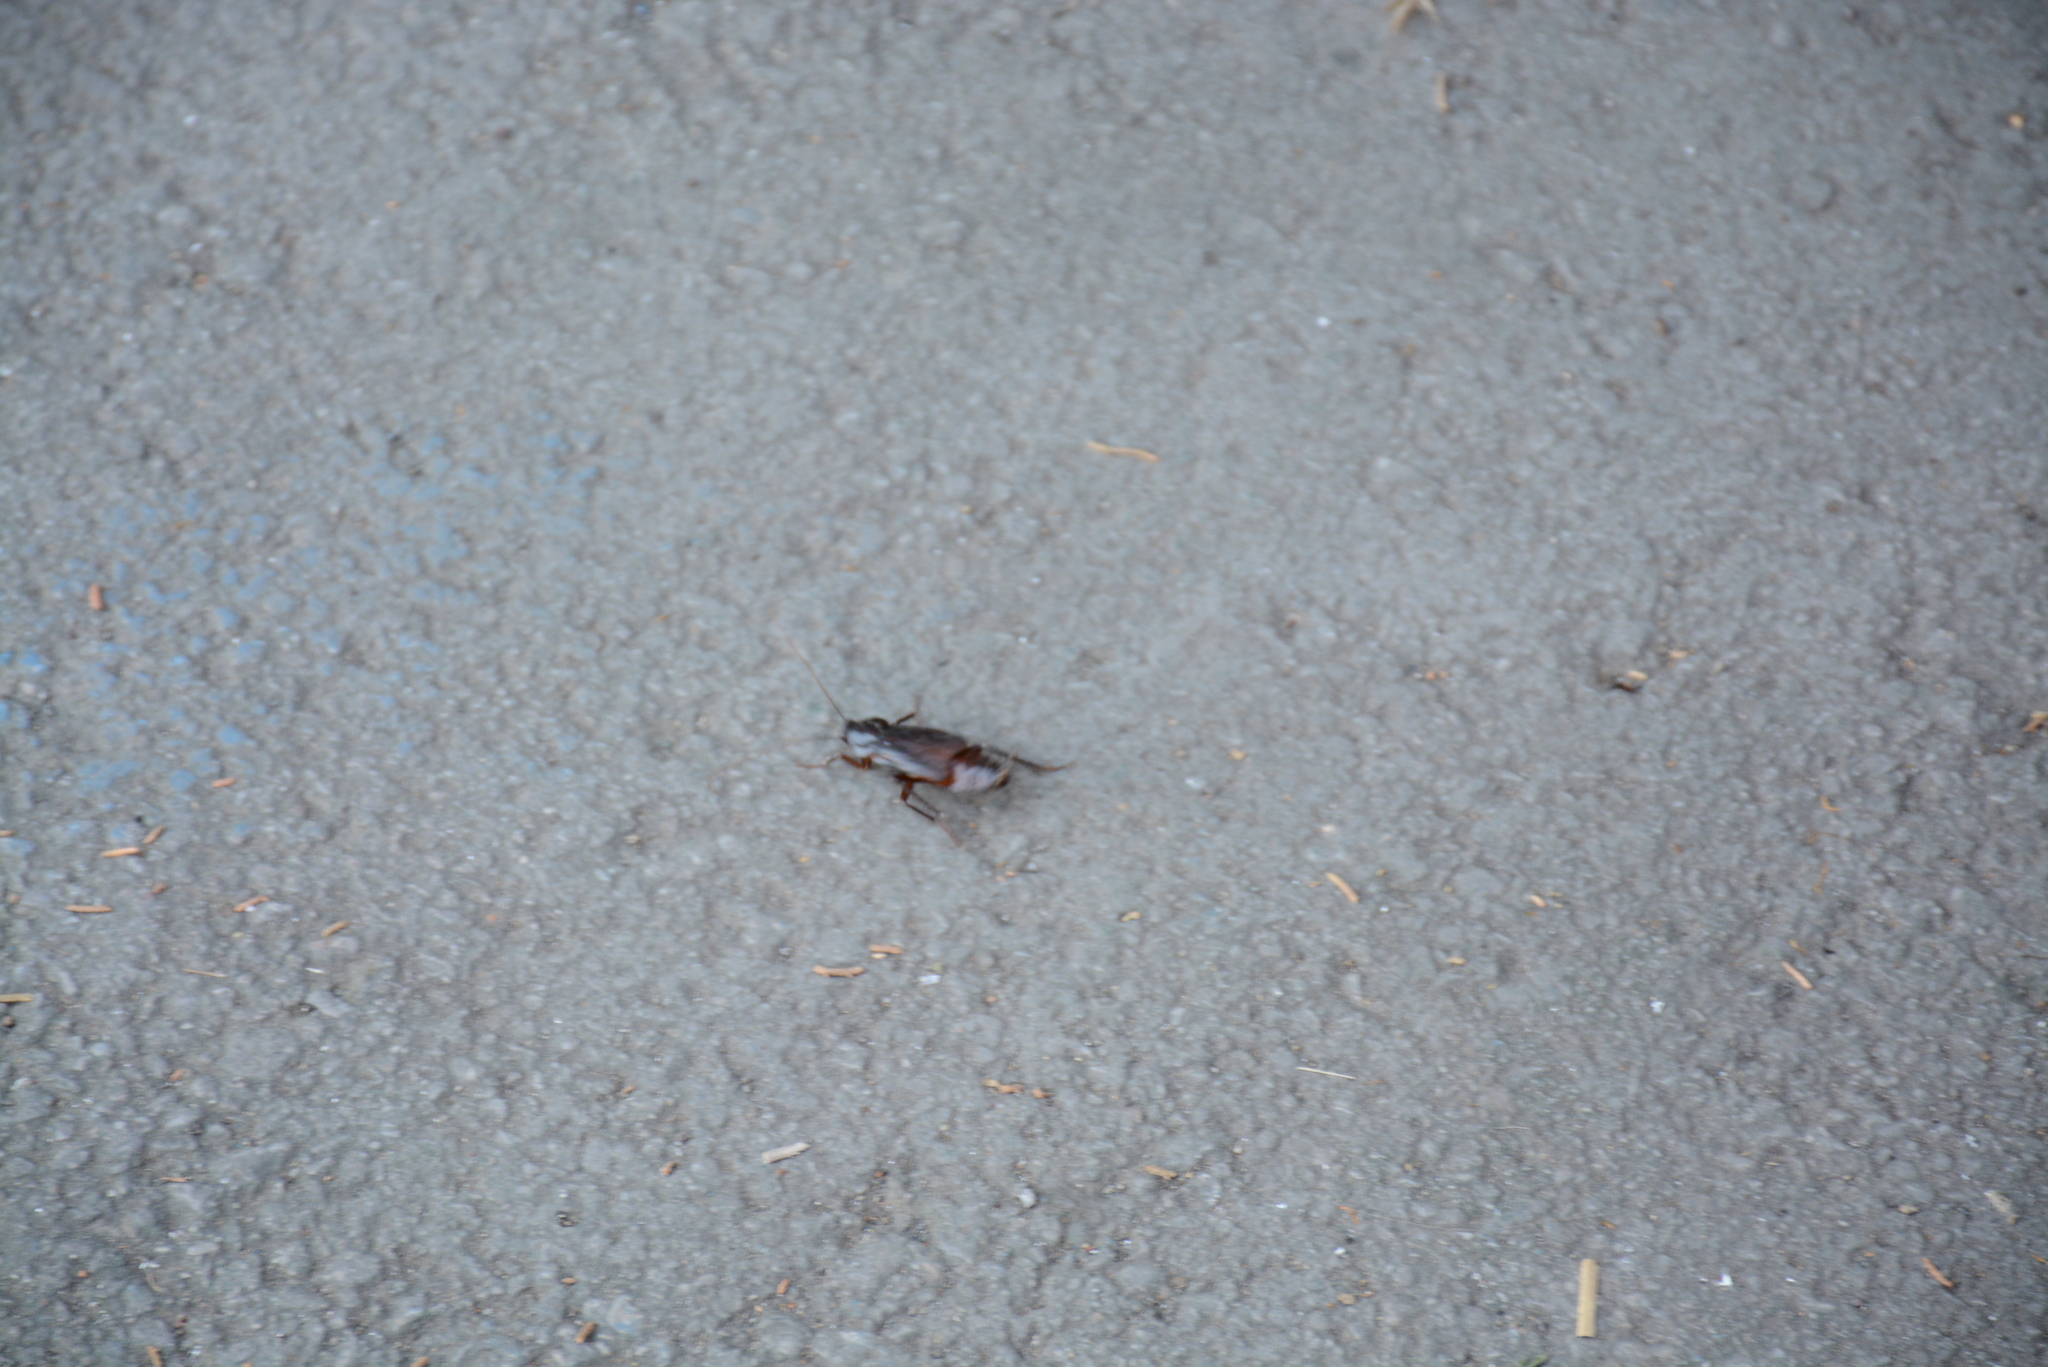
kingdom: Animalia
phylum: Arthropoda
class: Insecta
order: Blattodea
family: Blattidae
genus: Blatta
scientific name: Blatta orientalis
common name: Oriental cockroach
